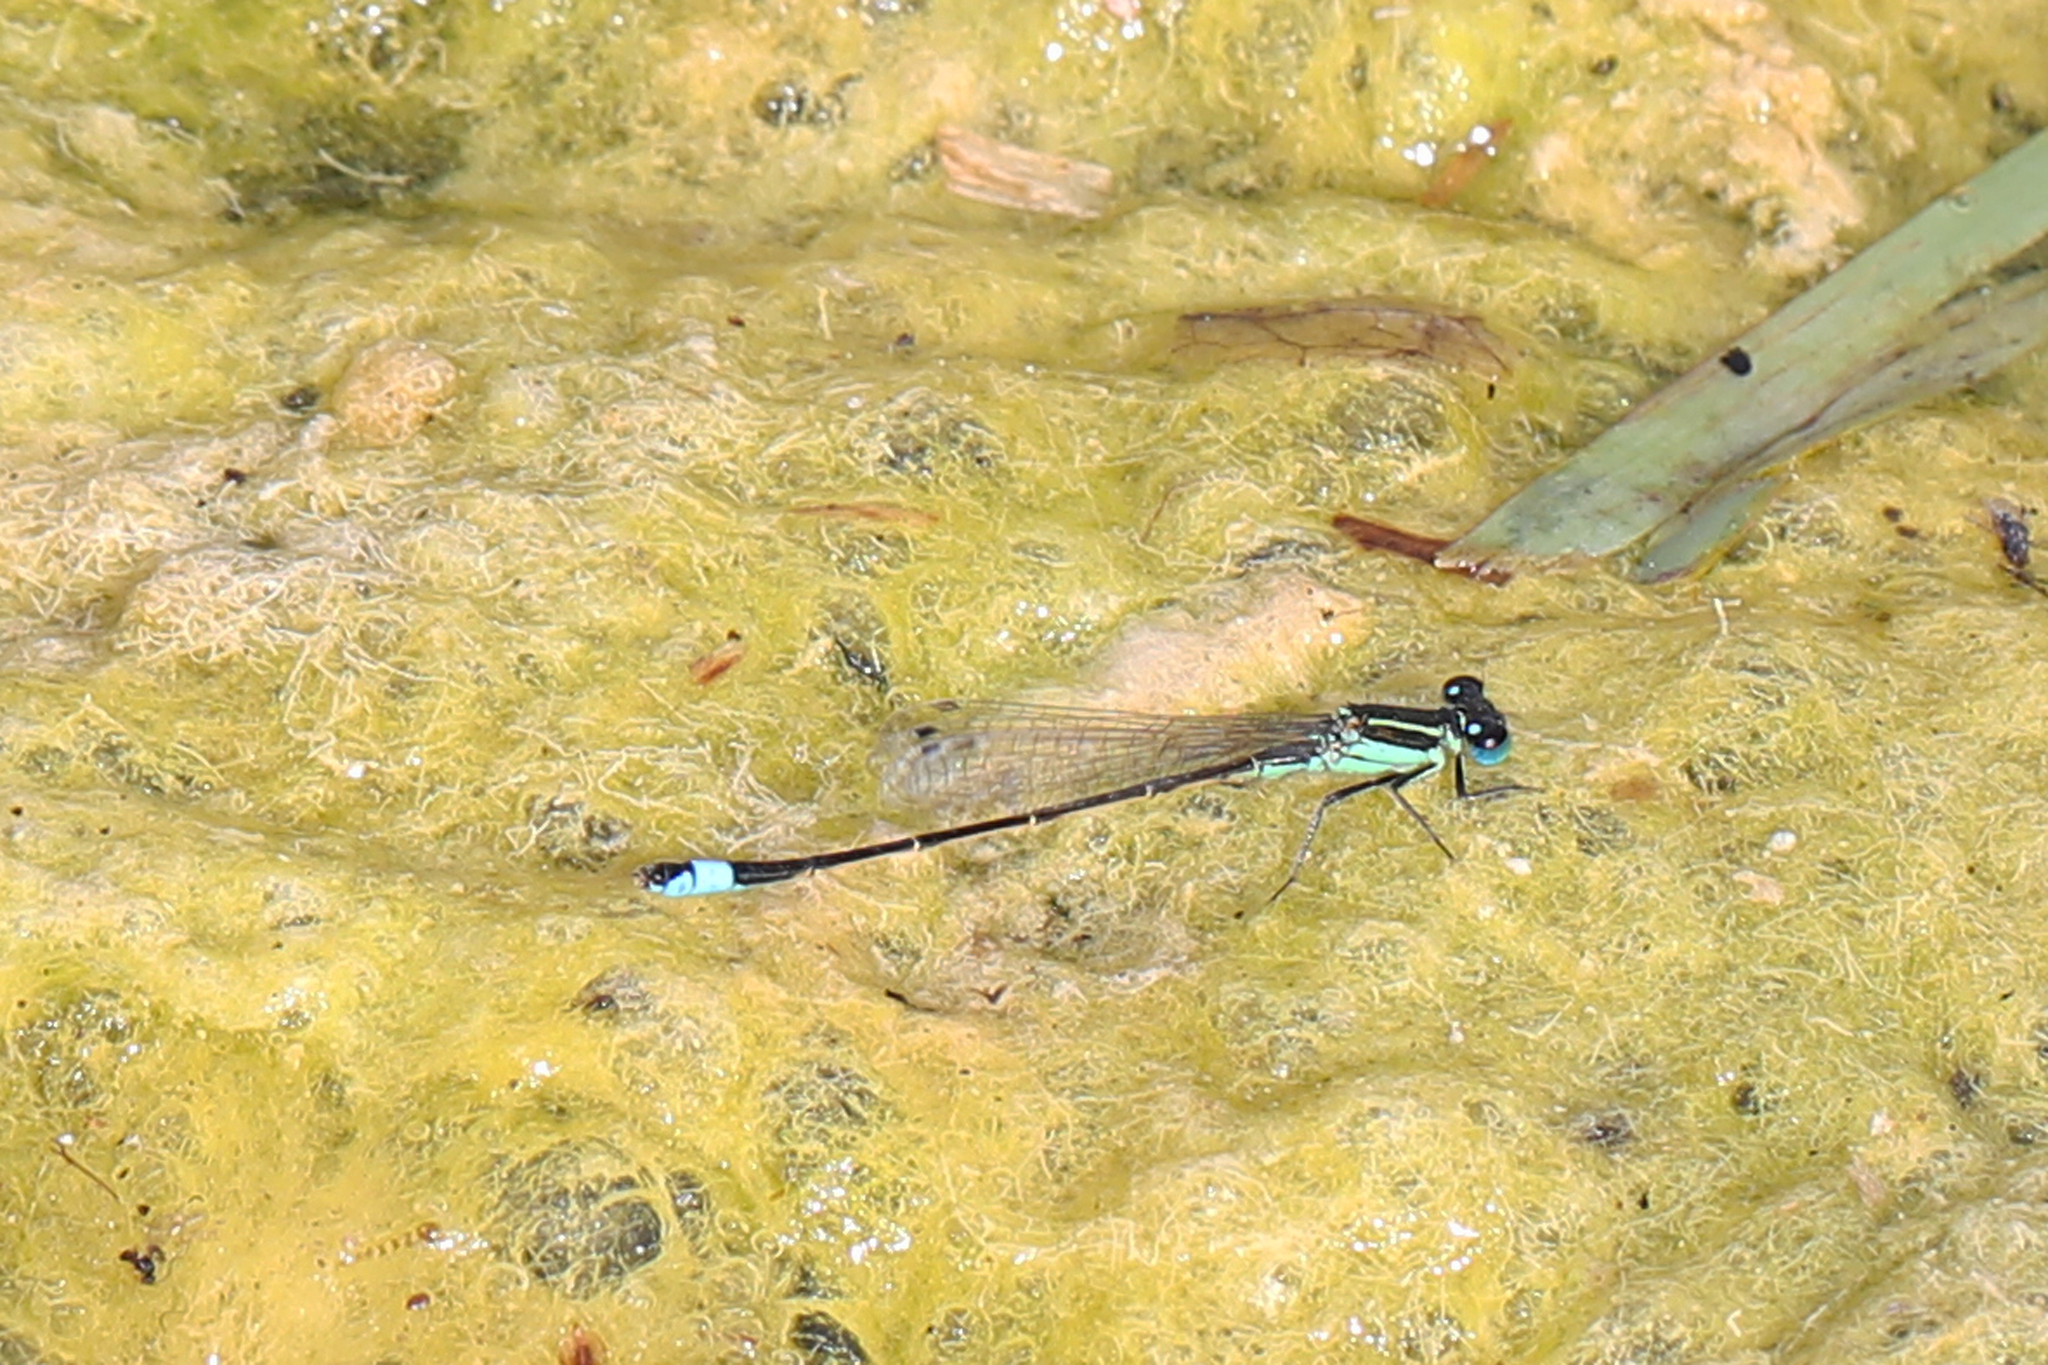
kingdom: Animalia
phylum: Arthropoda
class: Insecta
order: Odonata
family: Coenagrionidae
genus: Ischnura
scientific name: Ischnura ramburii
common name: Rambur's forktail
